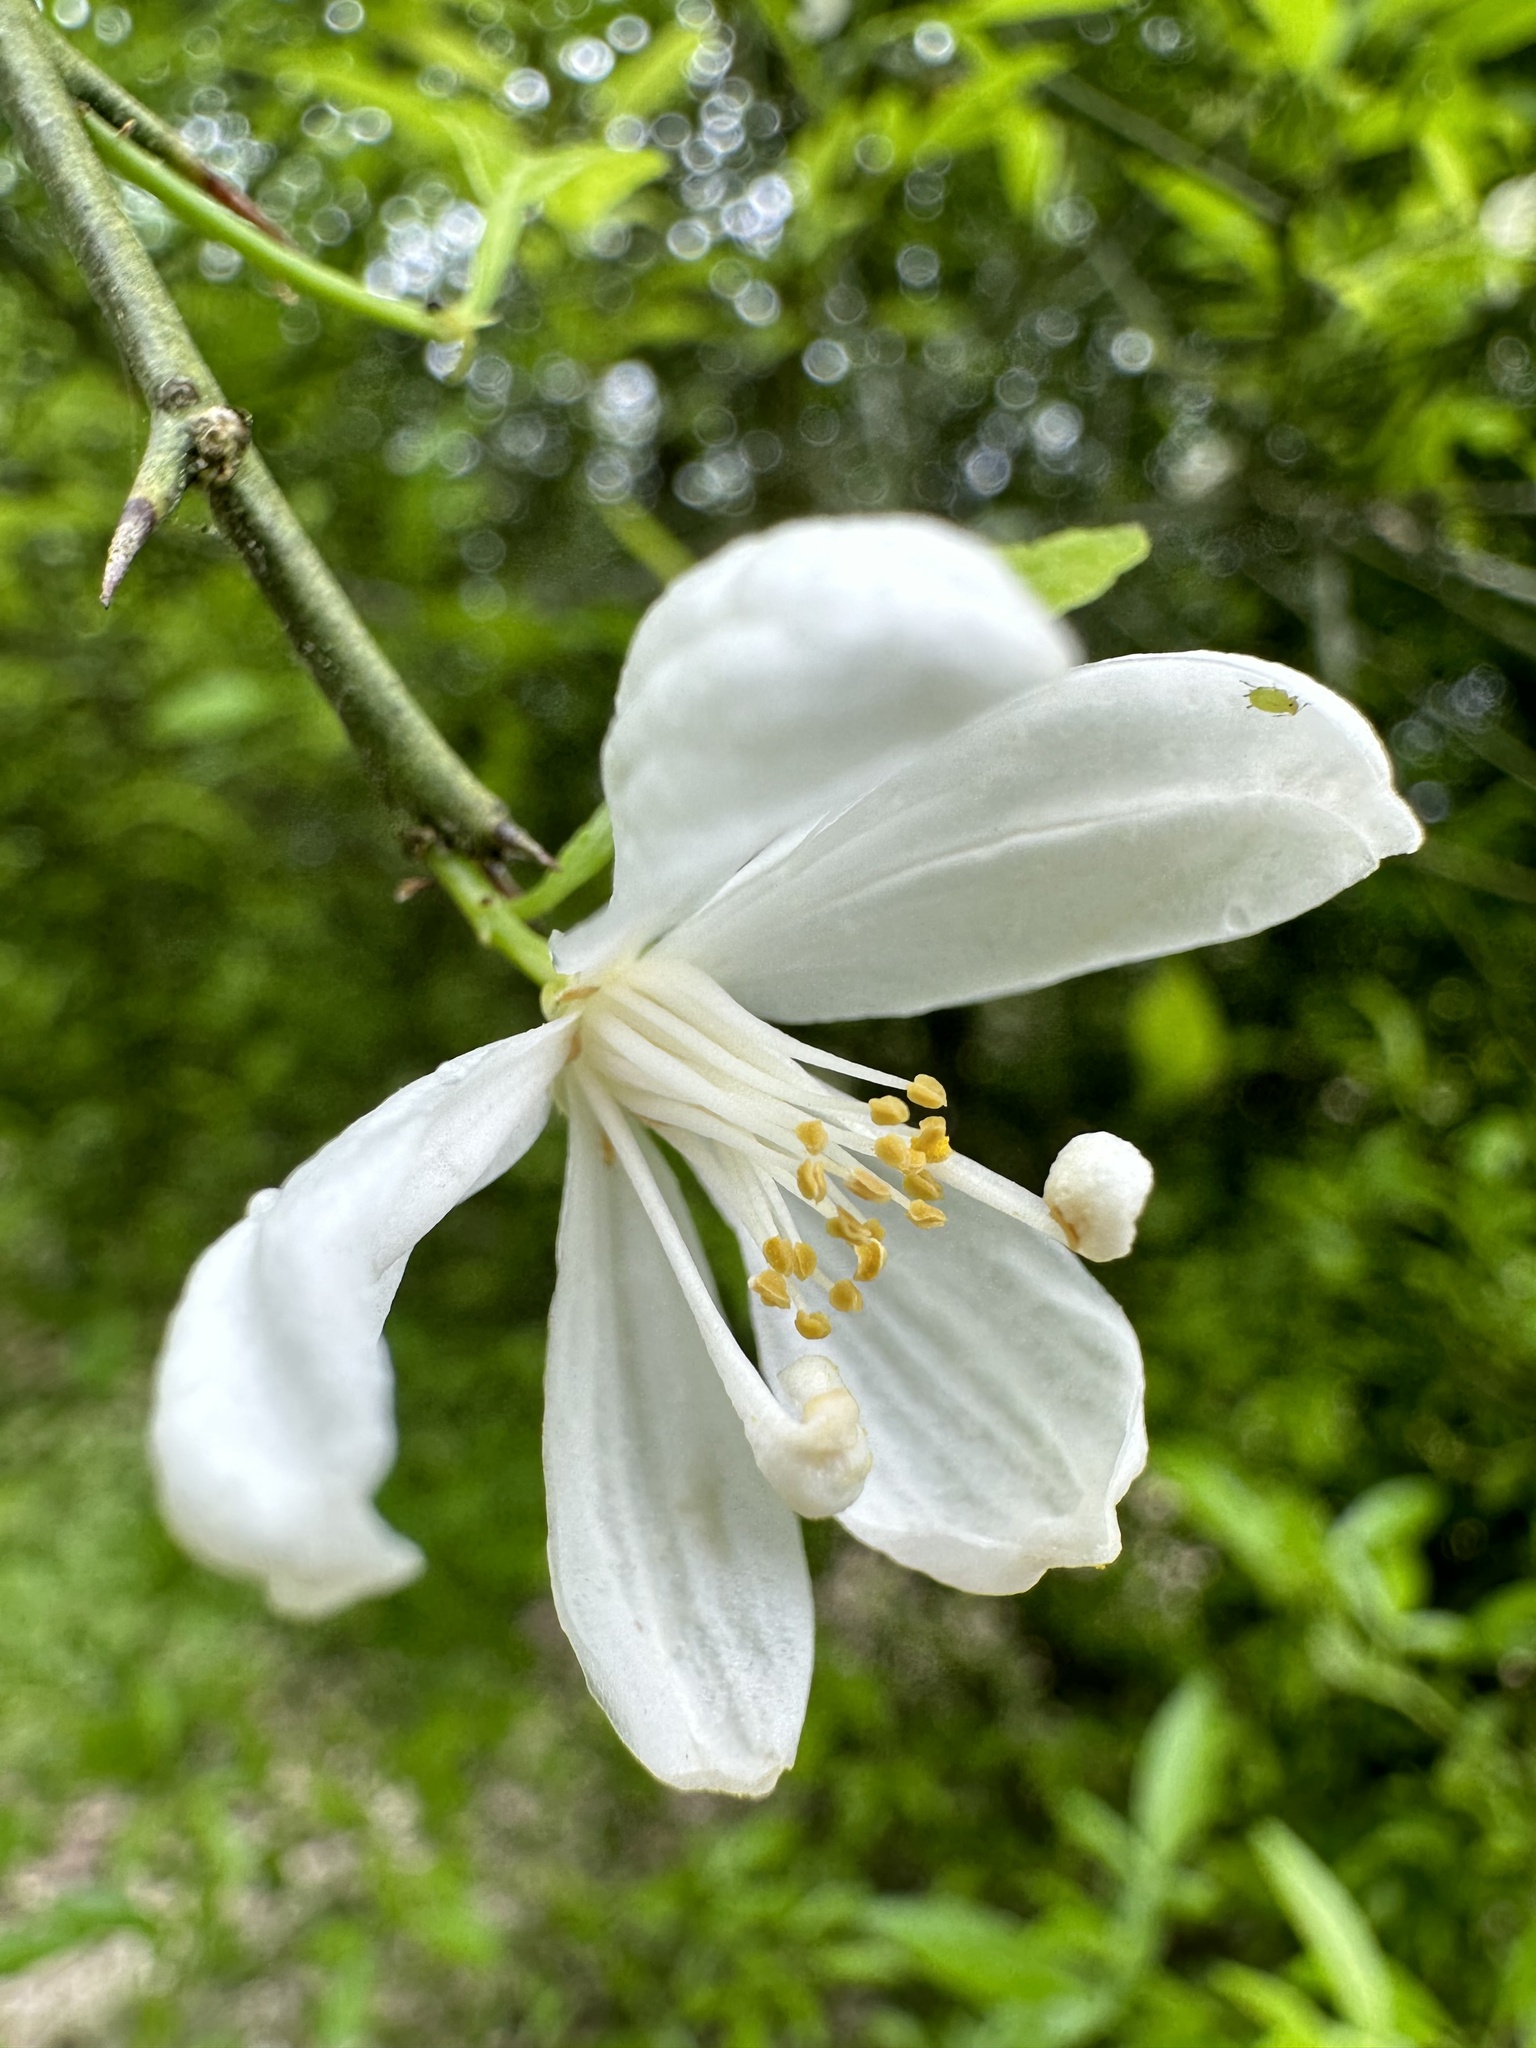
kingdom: Plantae
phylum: Tracheophyta
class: Magnoliopsida
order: Sapindales
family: Rutaceae
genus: Citrus
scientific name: Citrus trifoliata
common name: Japanese bitter-orange
